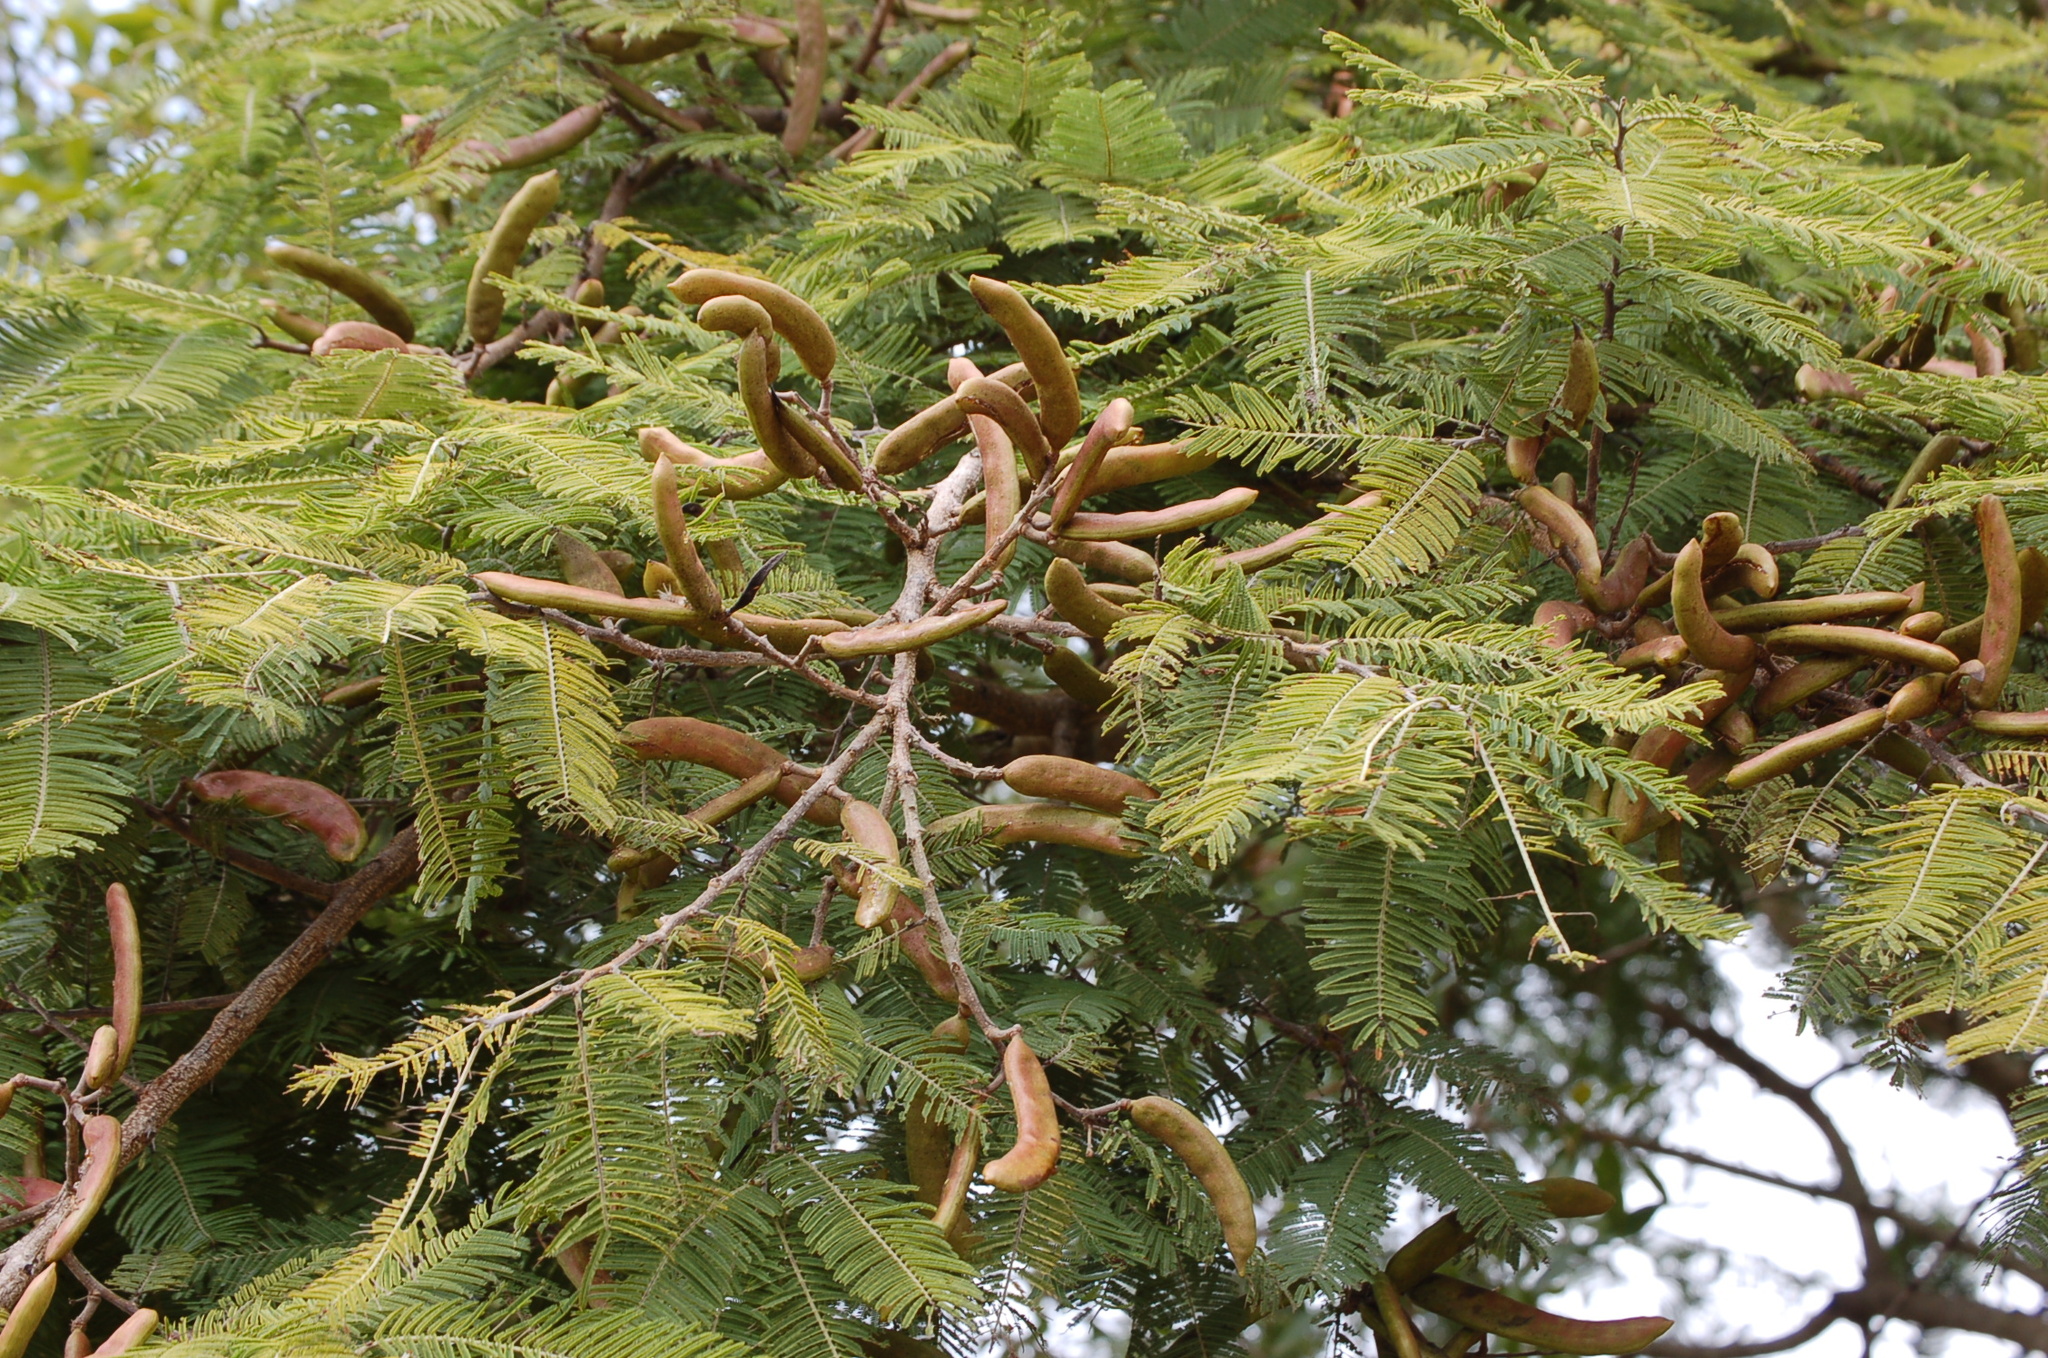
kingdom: Plantae
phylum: Tracheophyta
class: Magnoliopsida
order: Fabales
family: Fabaceae
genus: Vachellia
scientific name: Vachellia pennatula
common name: Fern-leaf acacia
